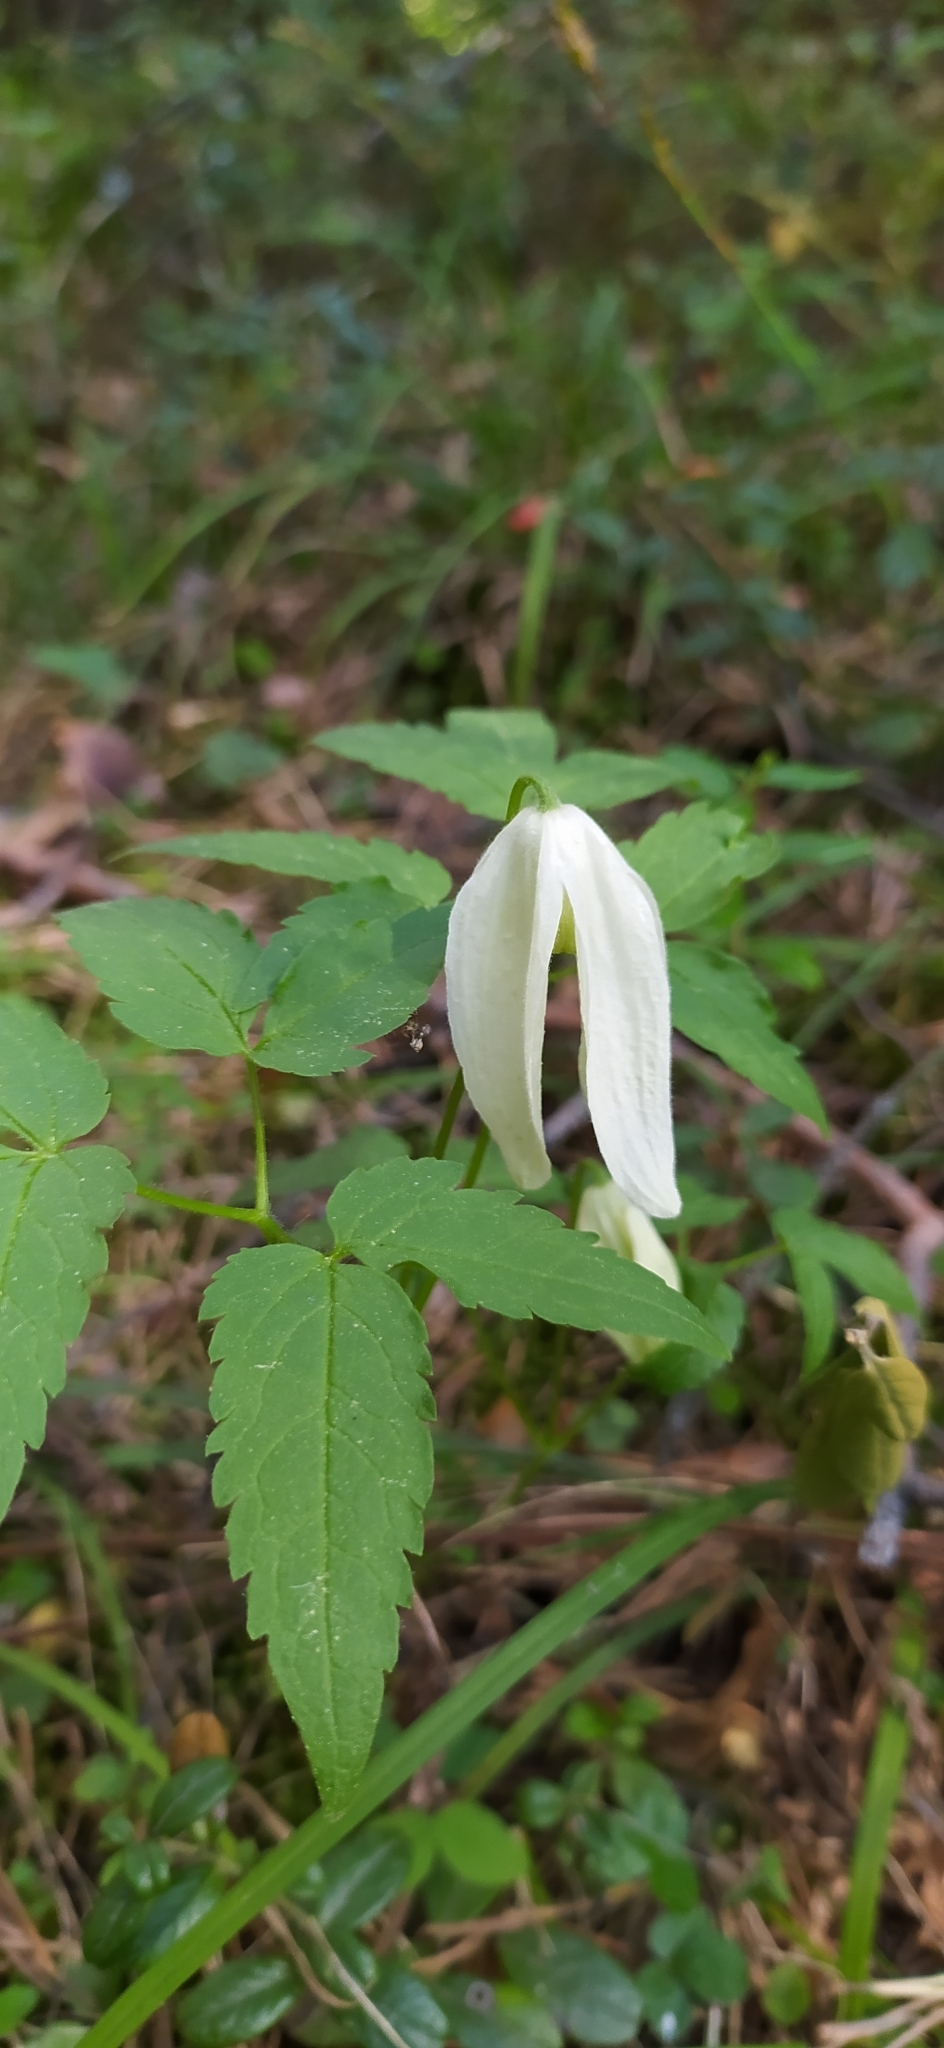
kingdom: Plantae
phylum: Tracheophyta
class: Magnoliopsida
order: Ranunculales
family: Ranunculaceae
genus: Clematis
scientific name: Clematis sibirica
